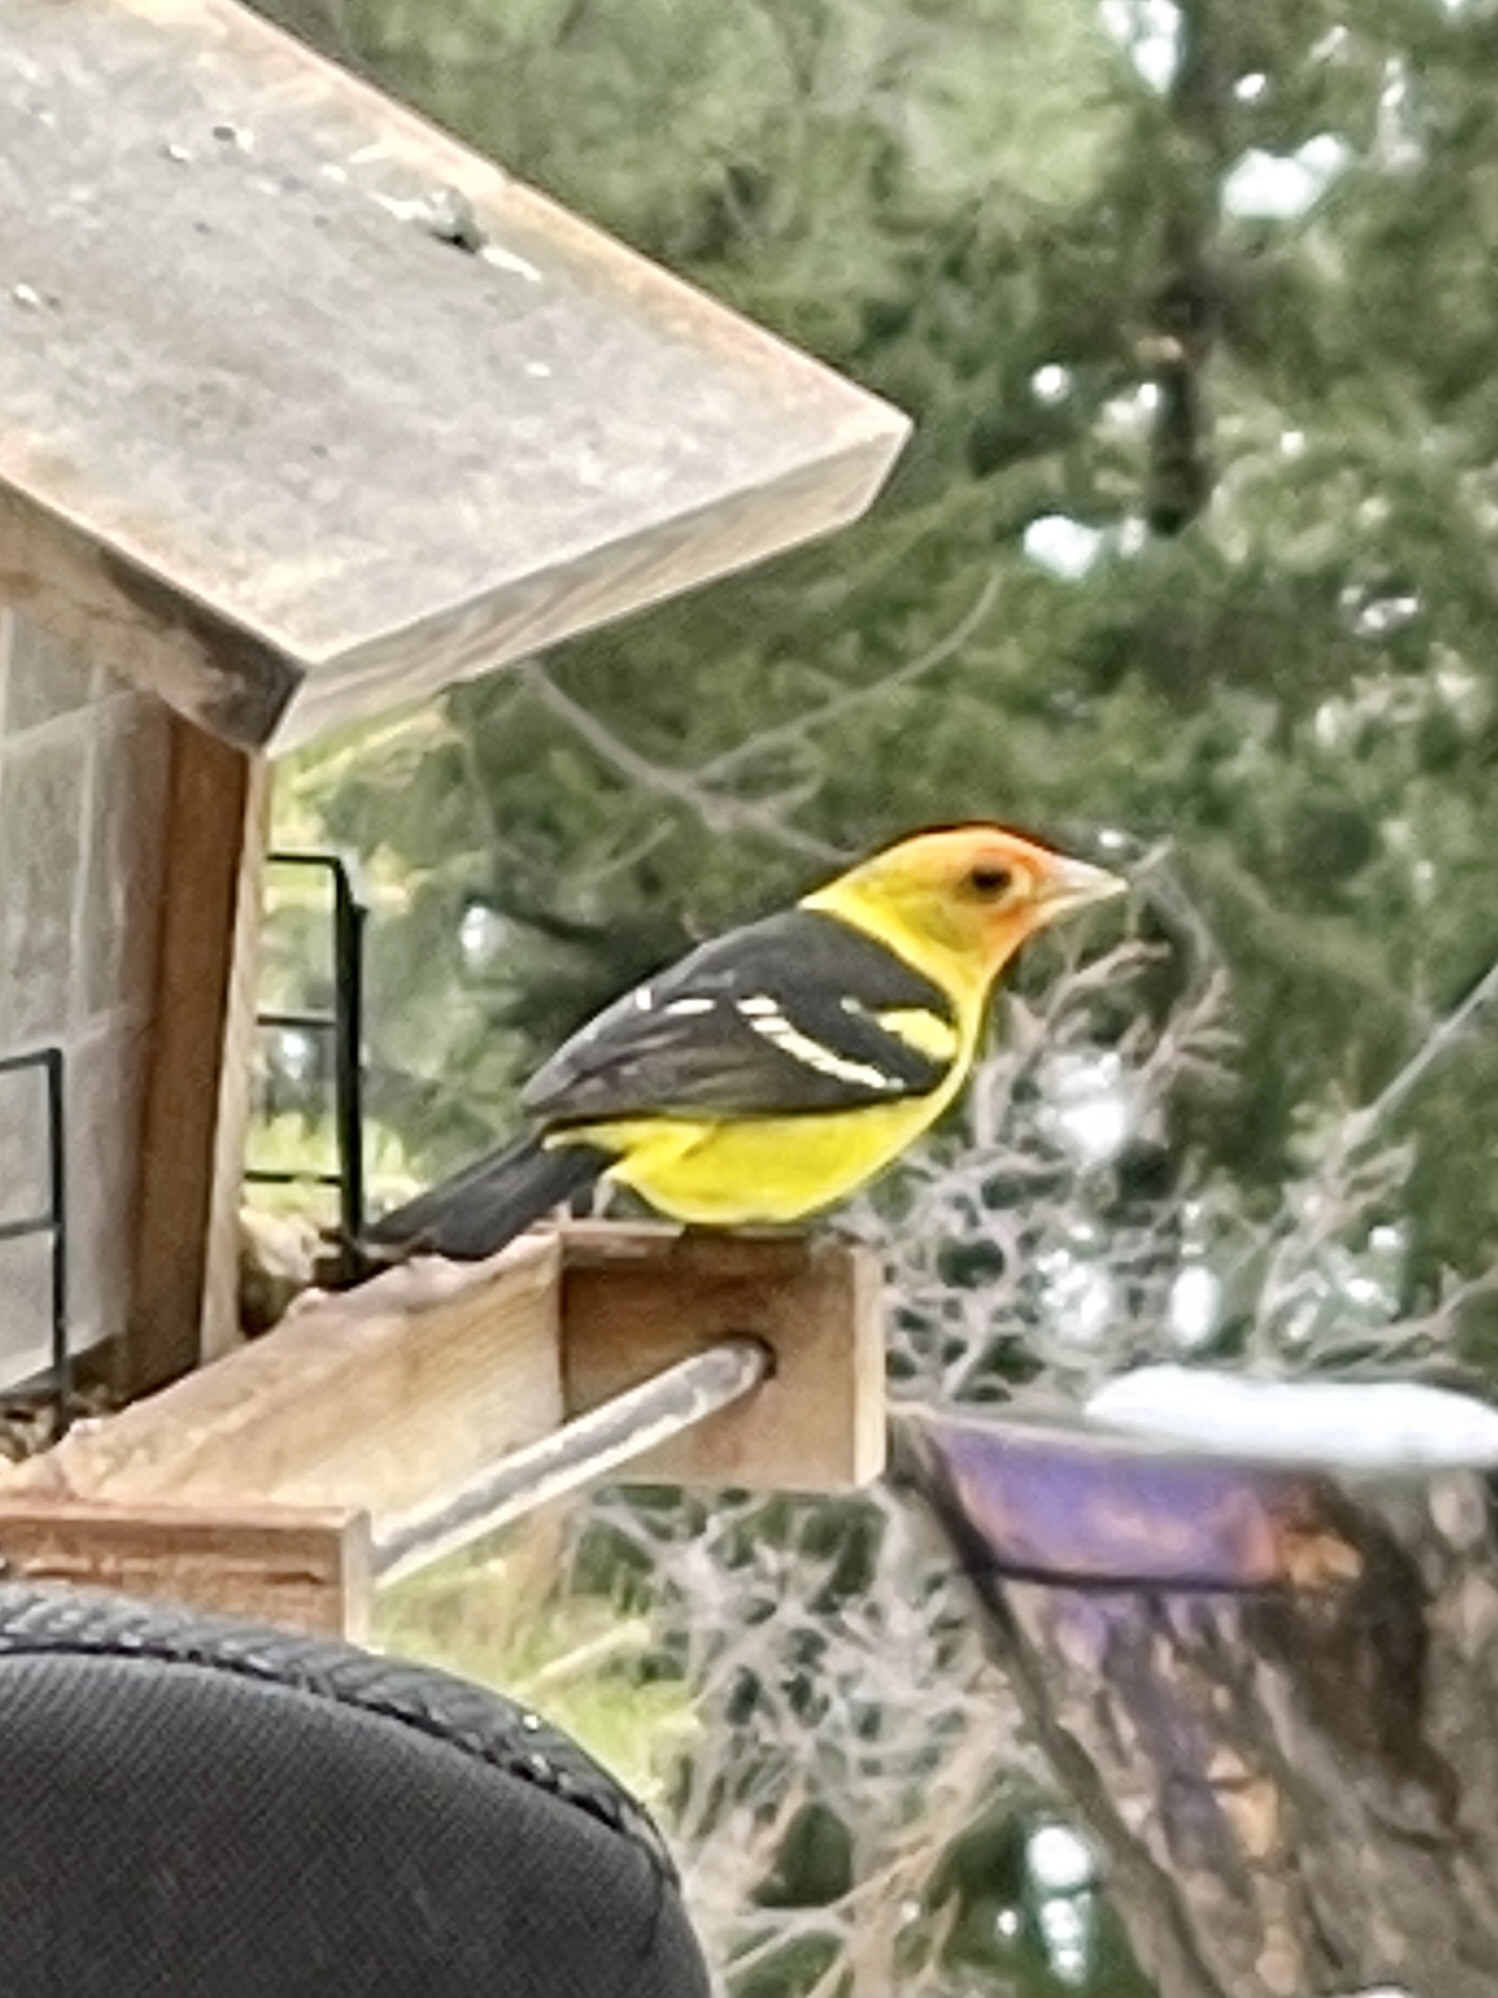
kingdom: Animalia
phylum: Chordata
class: Aves
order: Passeriformes
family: Cardinalidae
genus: Piranga
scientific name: Piranga ludoviciana
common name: Western tanager
